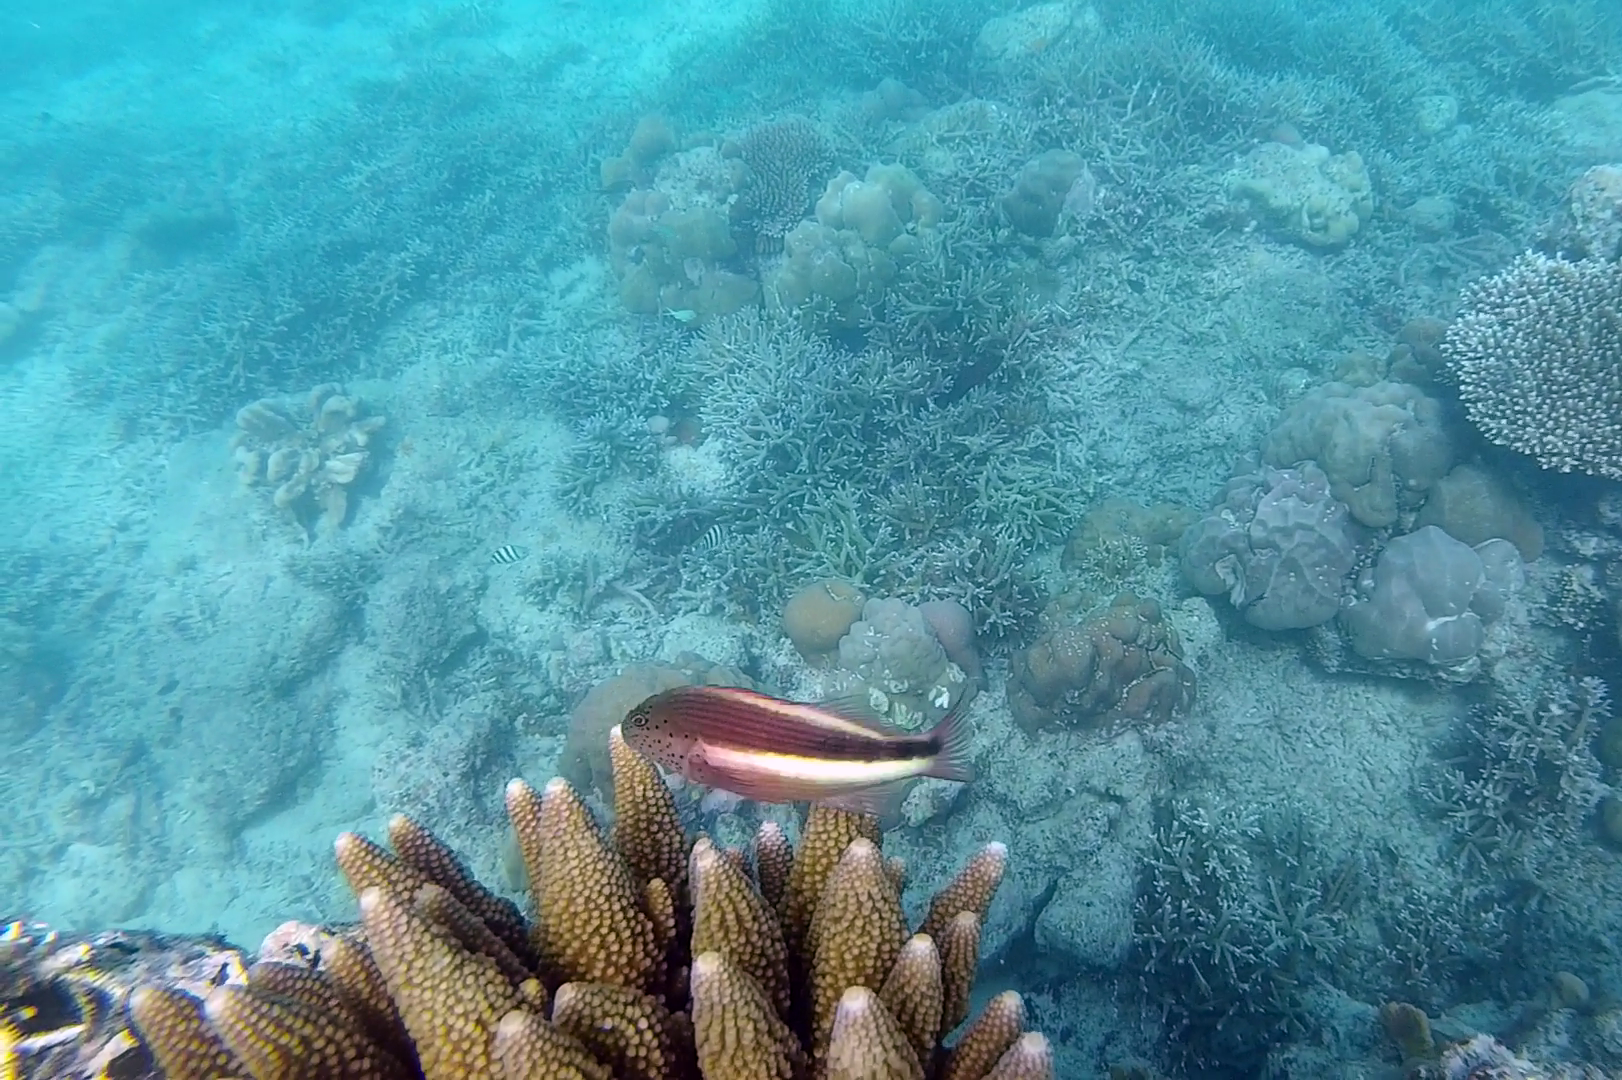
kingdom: Animalia
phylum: Chordata
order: Perciformes
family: Cirrhitidae
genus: Paracirrhites
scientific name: Paracirrhites forsteri
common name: Freckled hawkfish
